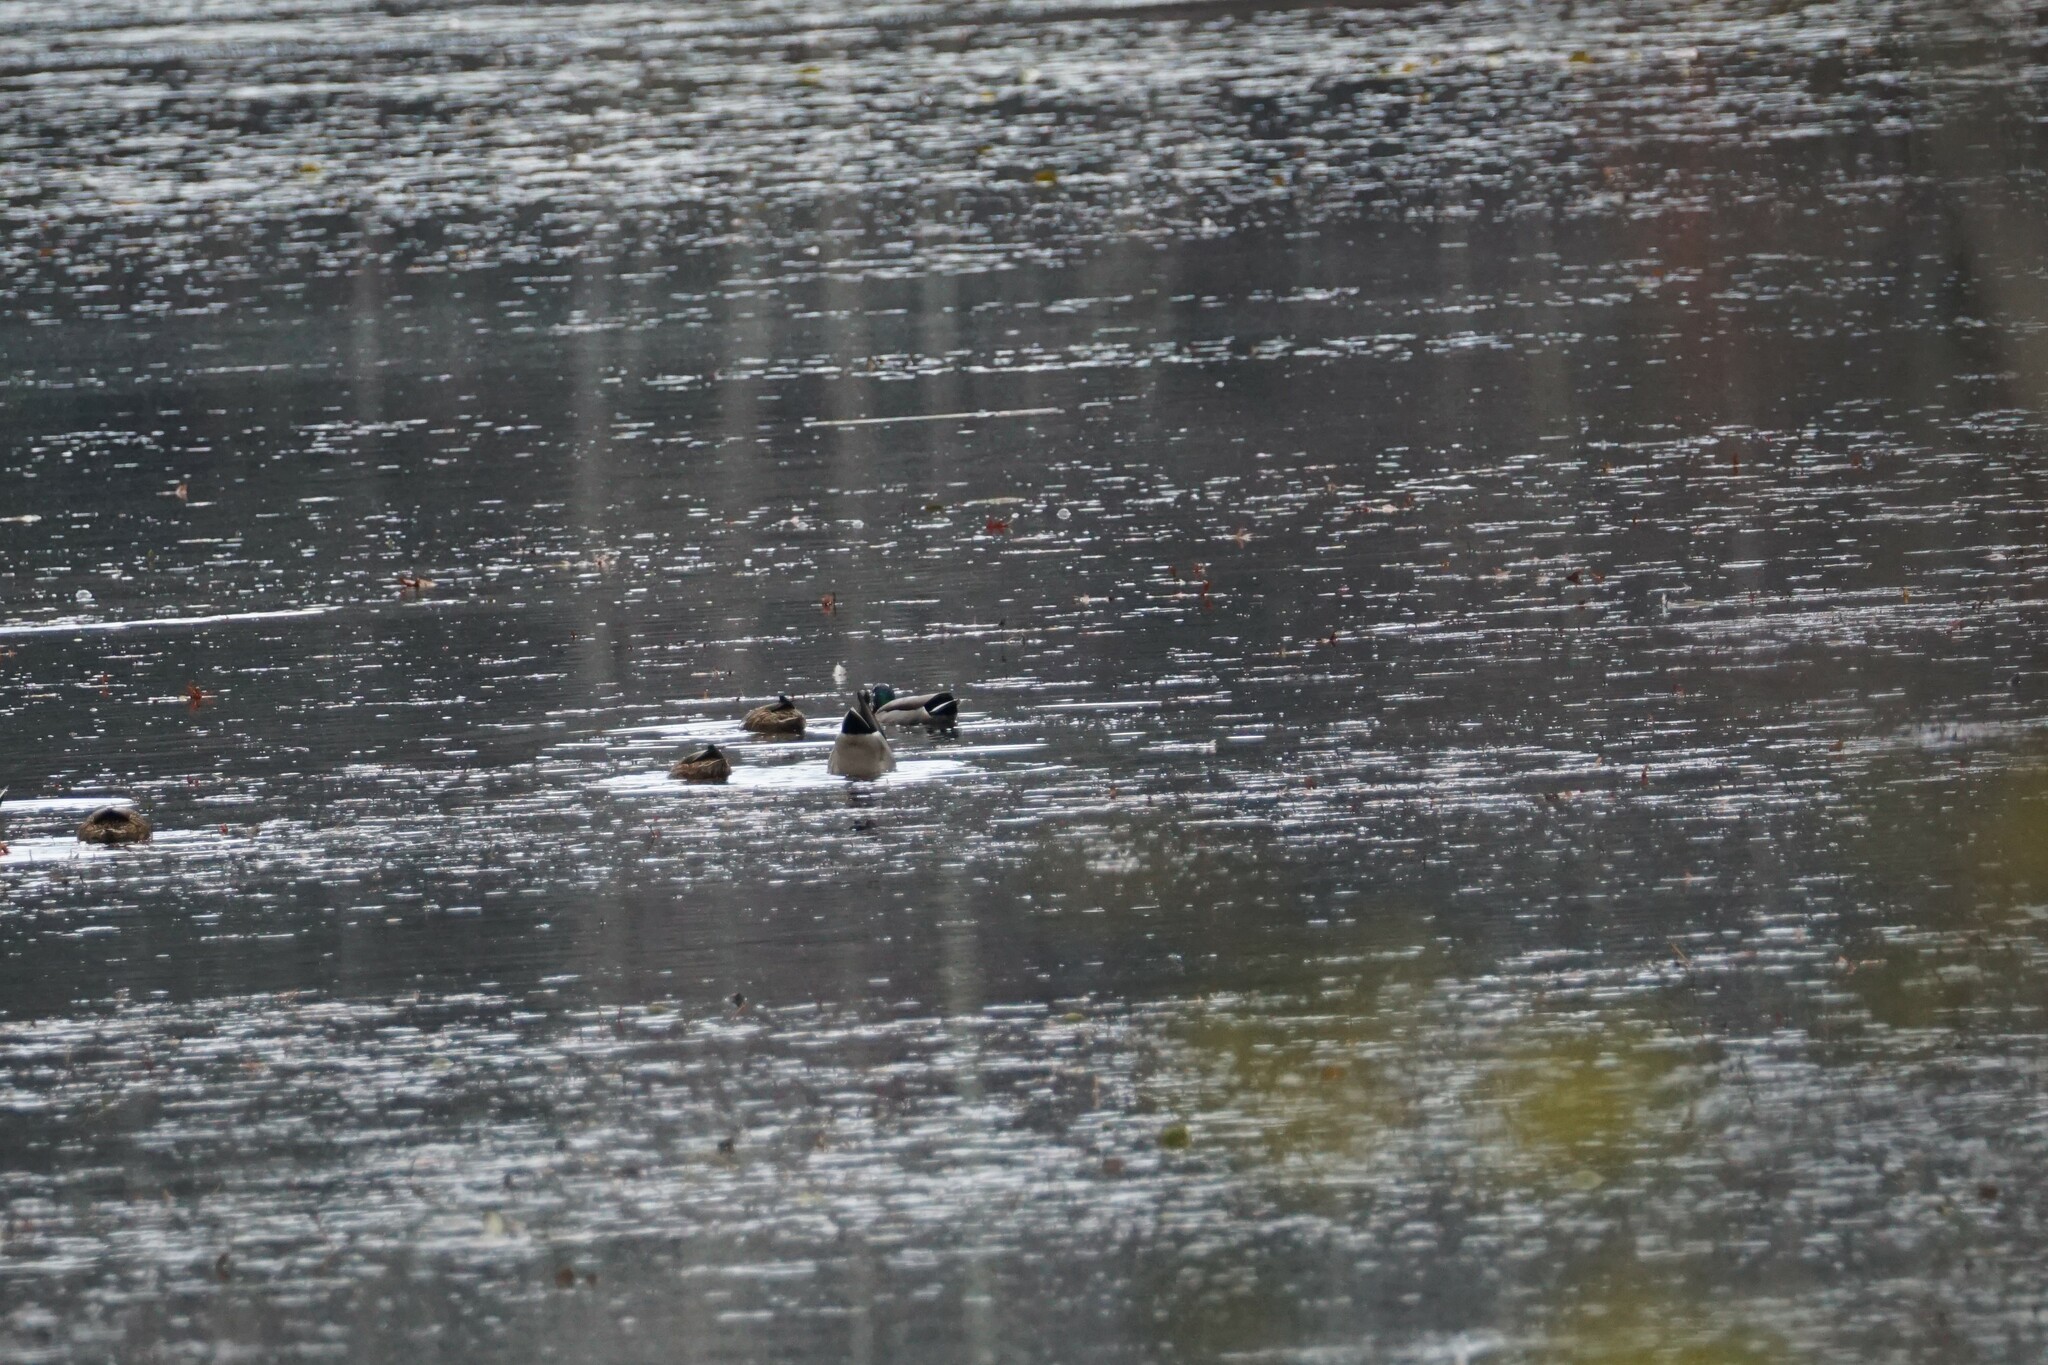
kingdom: Animalia
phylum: Chordata
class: Aves
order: Anseriformes
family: Anatidae
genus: Anas
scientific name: Anas platyrhynchos
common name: Mallard
